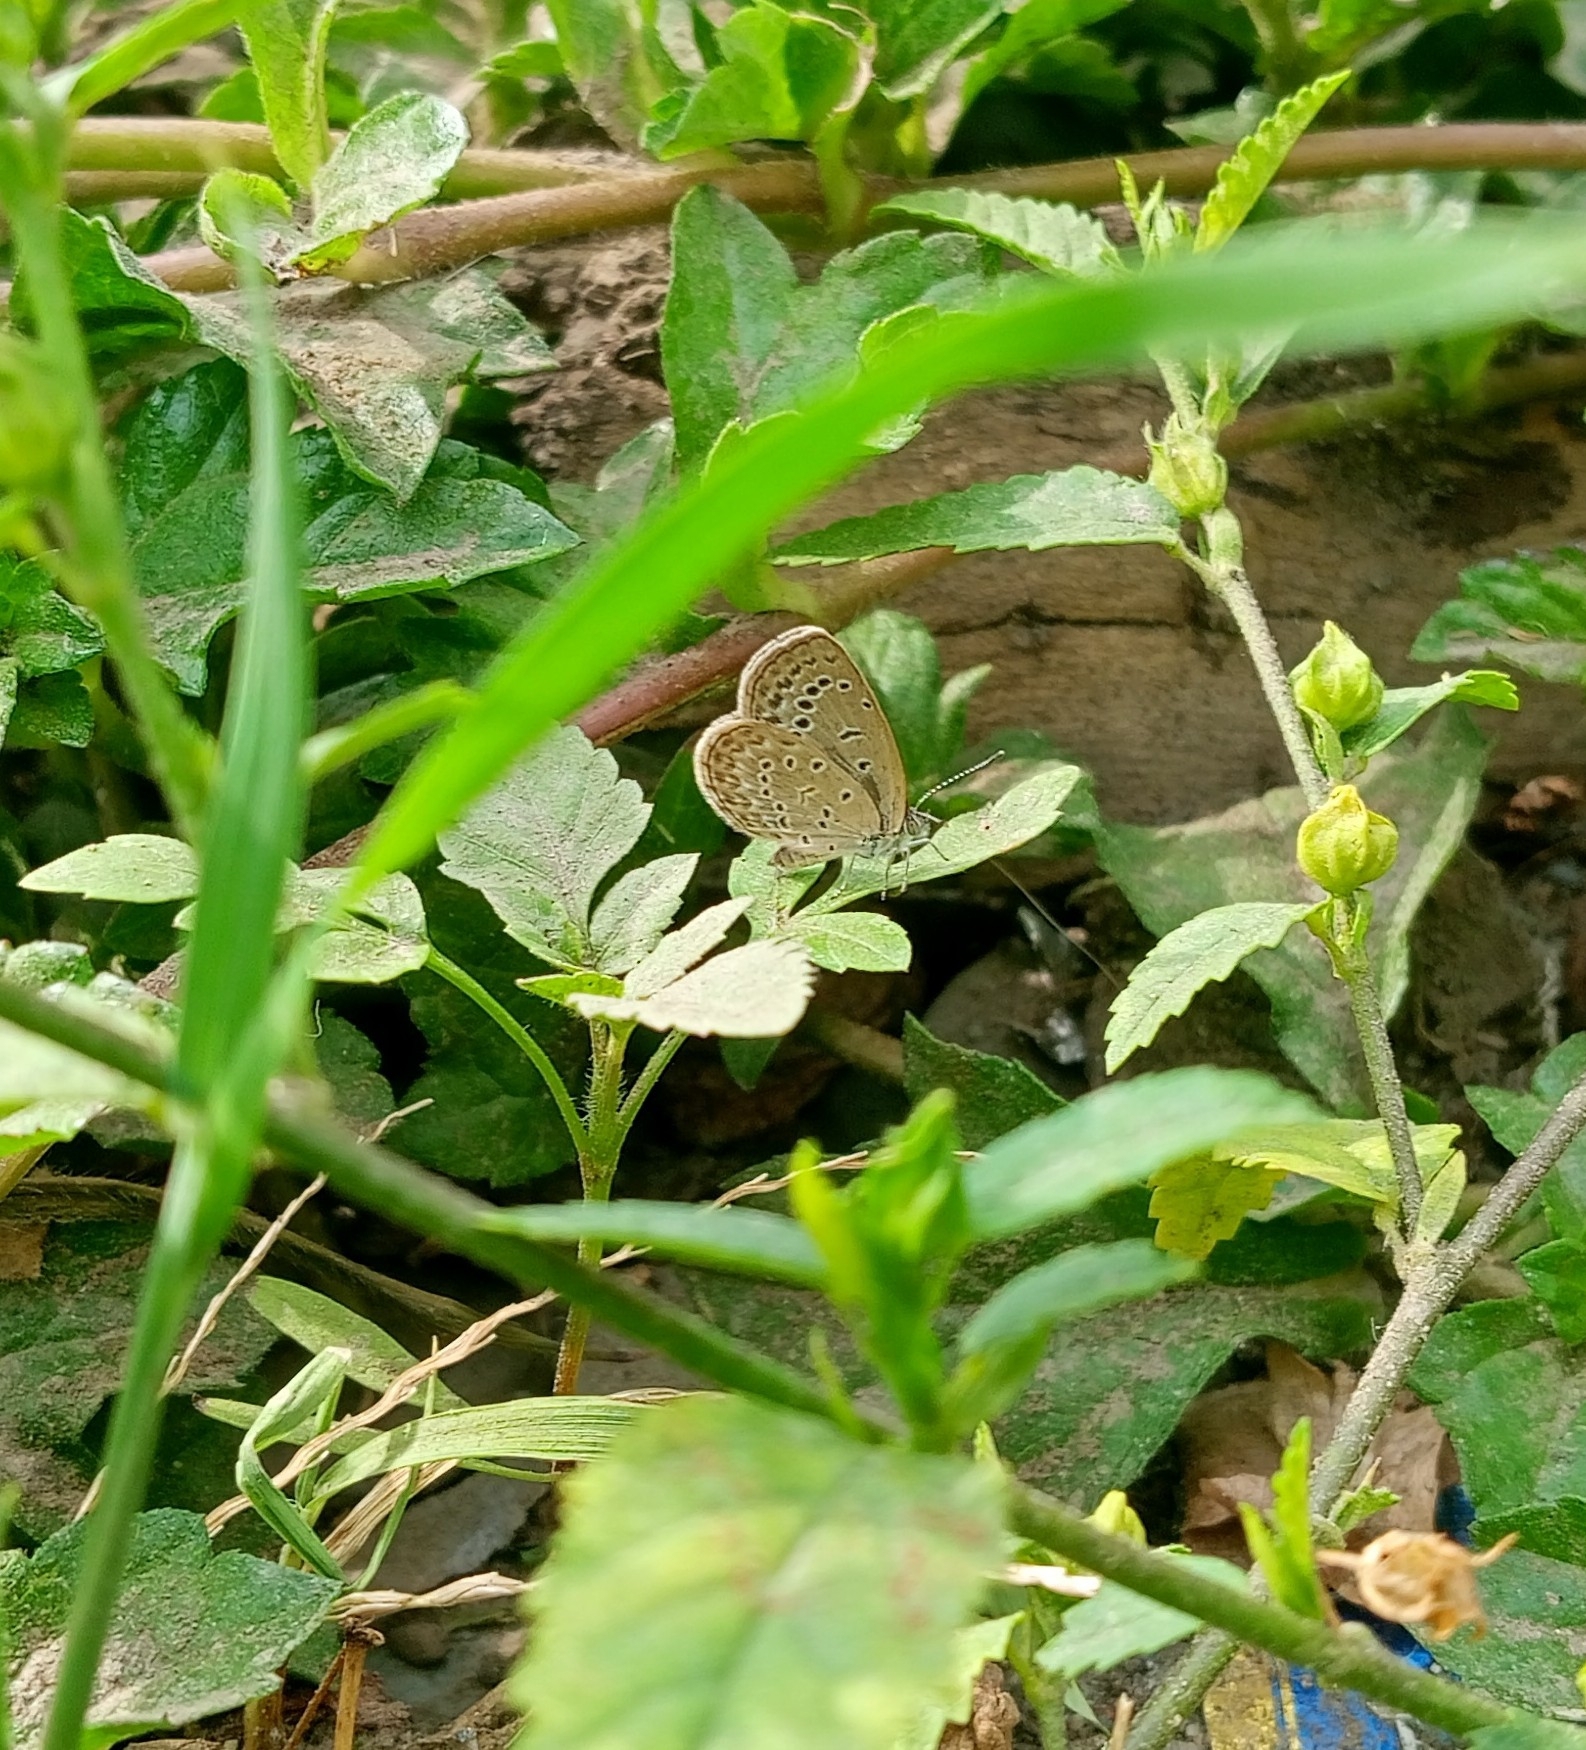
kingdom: Animalia
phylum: Arthropoda
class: Insecta
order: Lepidoptera
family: Lycaenidae
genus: Zizeeria
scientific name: Zizeeria karsandra
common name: Dark grass blue
